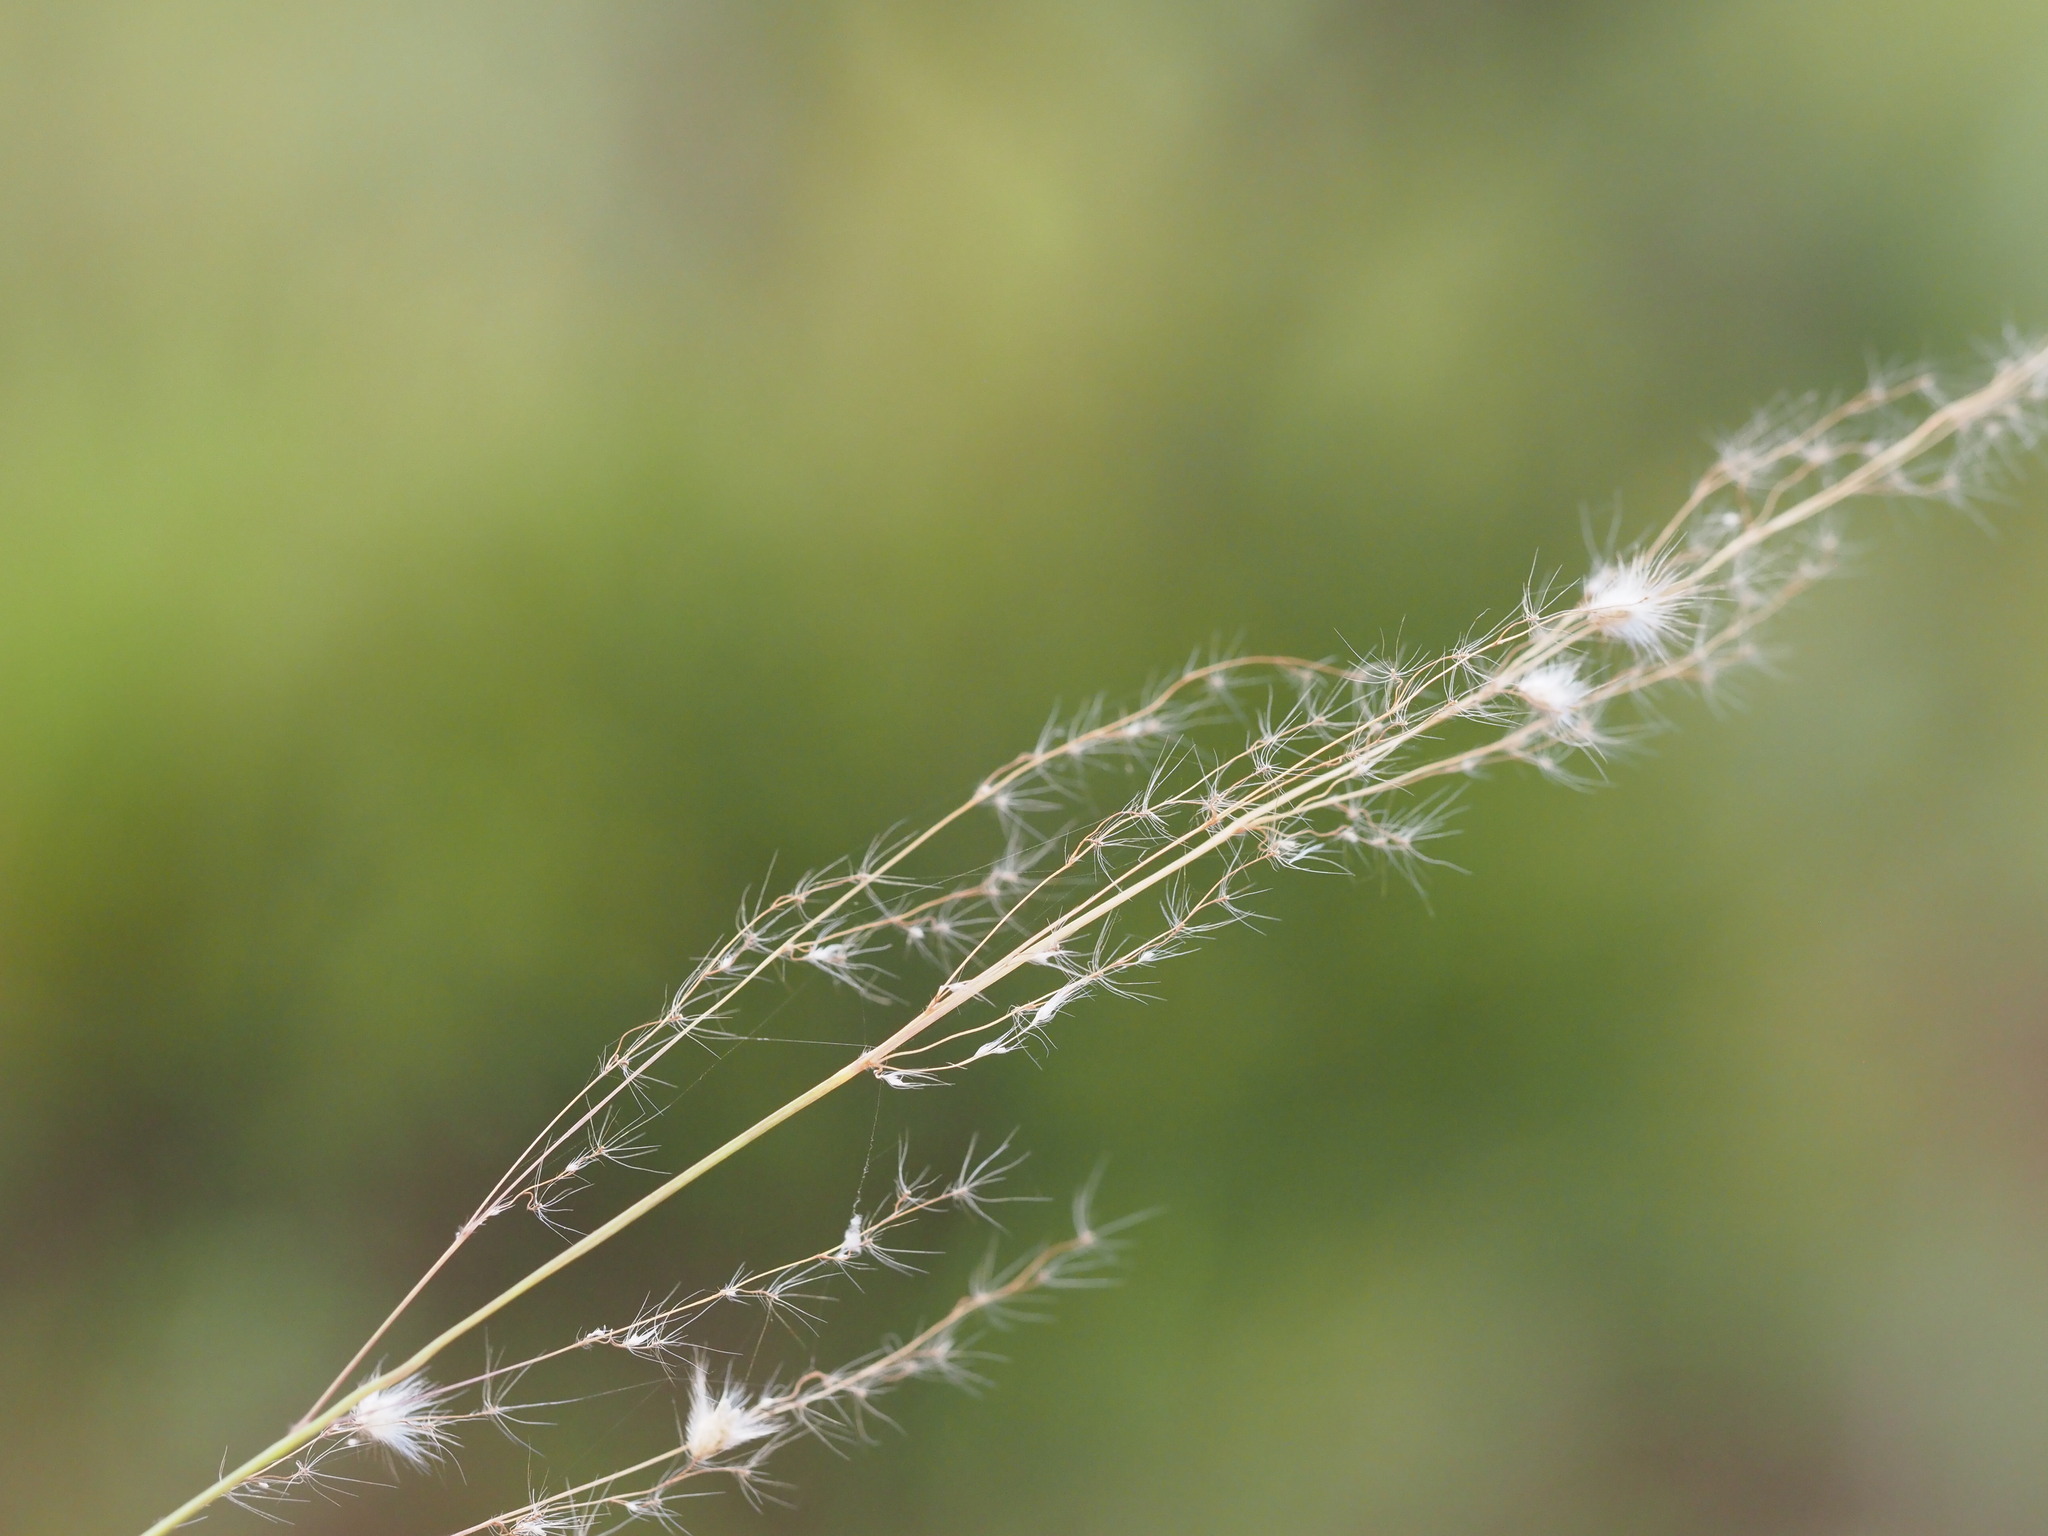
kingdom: Plantae
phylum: Tracheophyta
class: Liliopsida
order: Poales
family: Poaceae
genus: Melinis
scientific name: Melinis repens
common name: Rose natal grass
